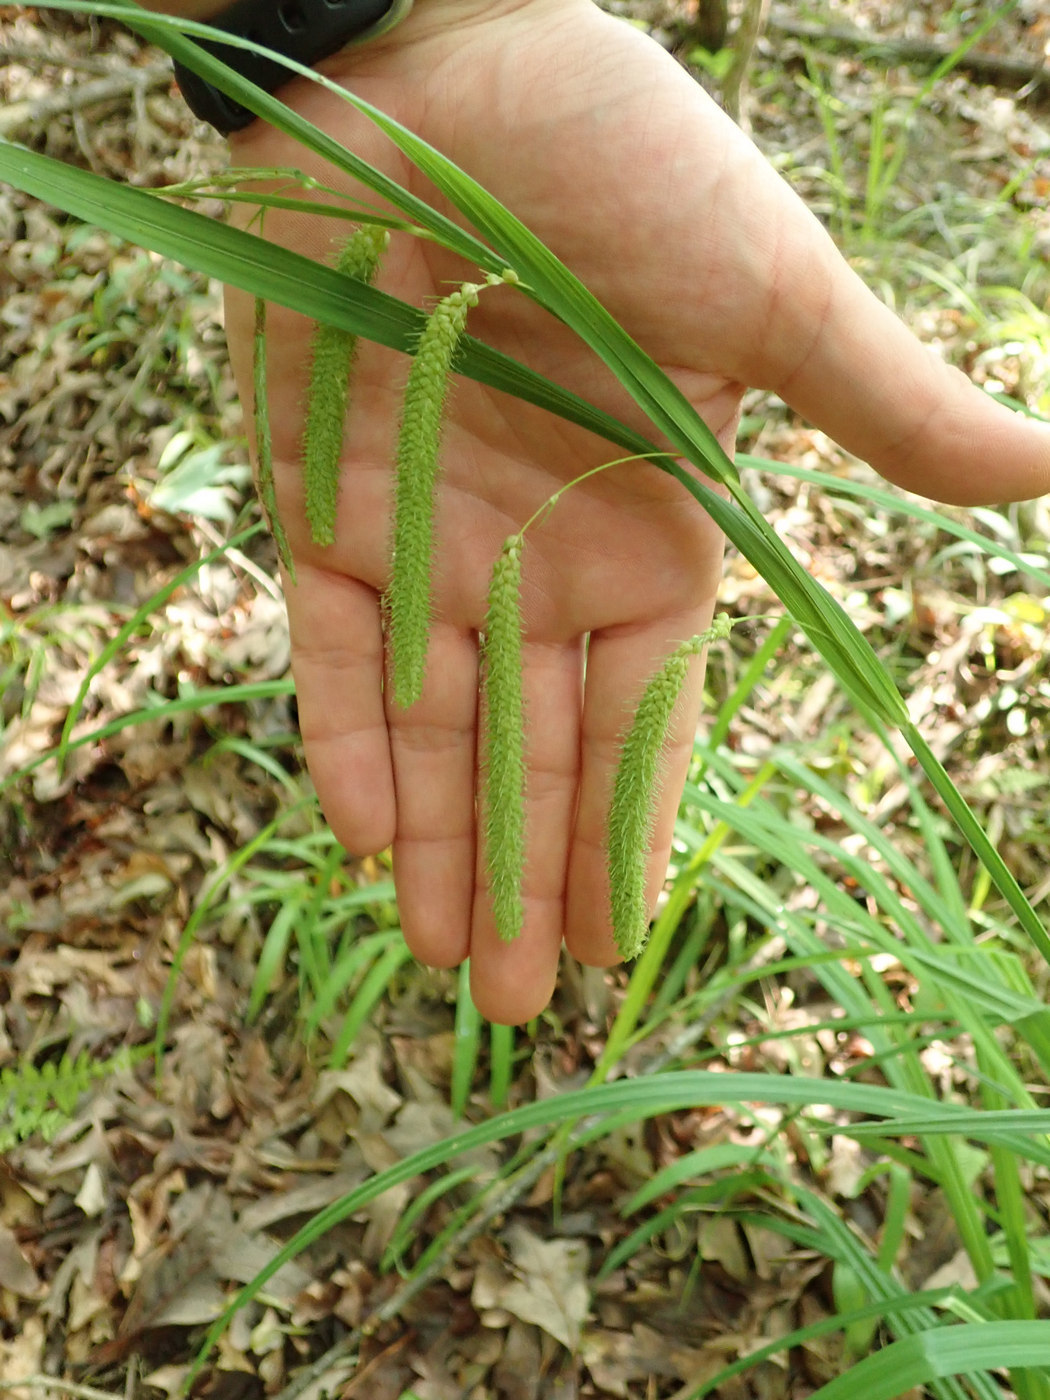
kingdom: Plantae
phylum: Tracheophyta
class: Liliopsida
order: Poales
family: Cyperaceae
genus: Carex
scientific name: Carex crinita
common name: Fringed sedge
